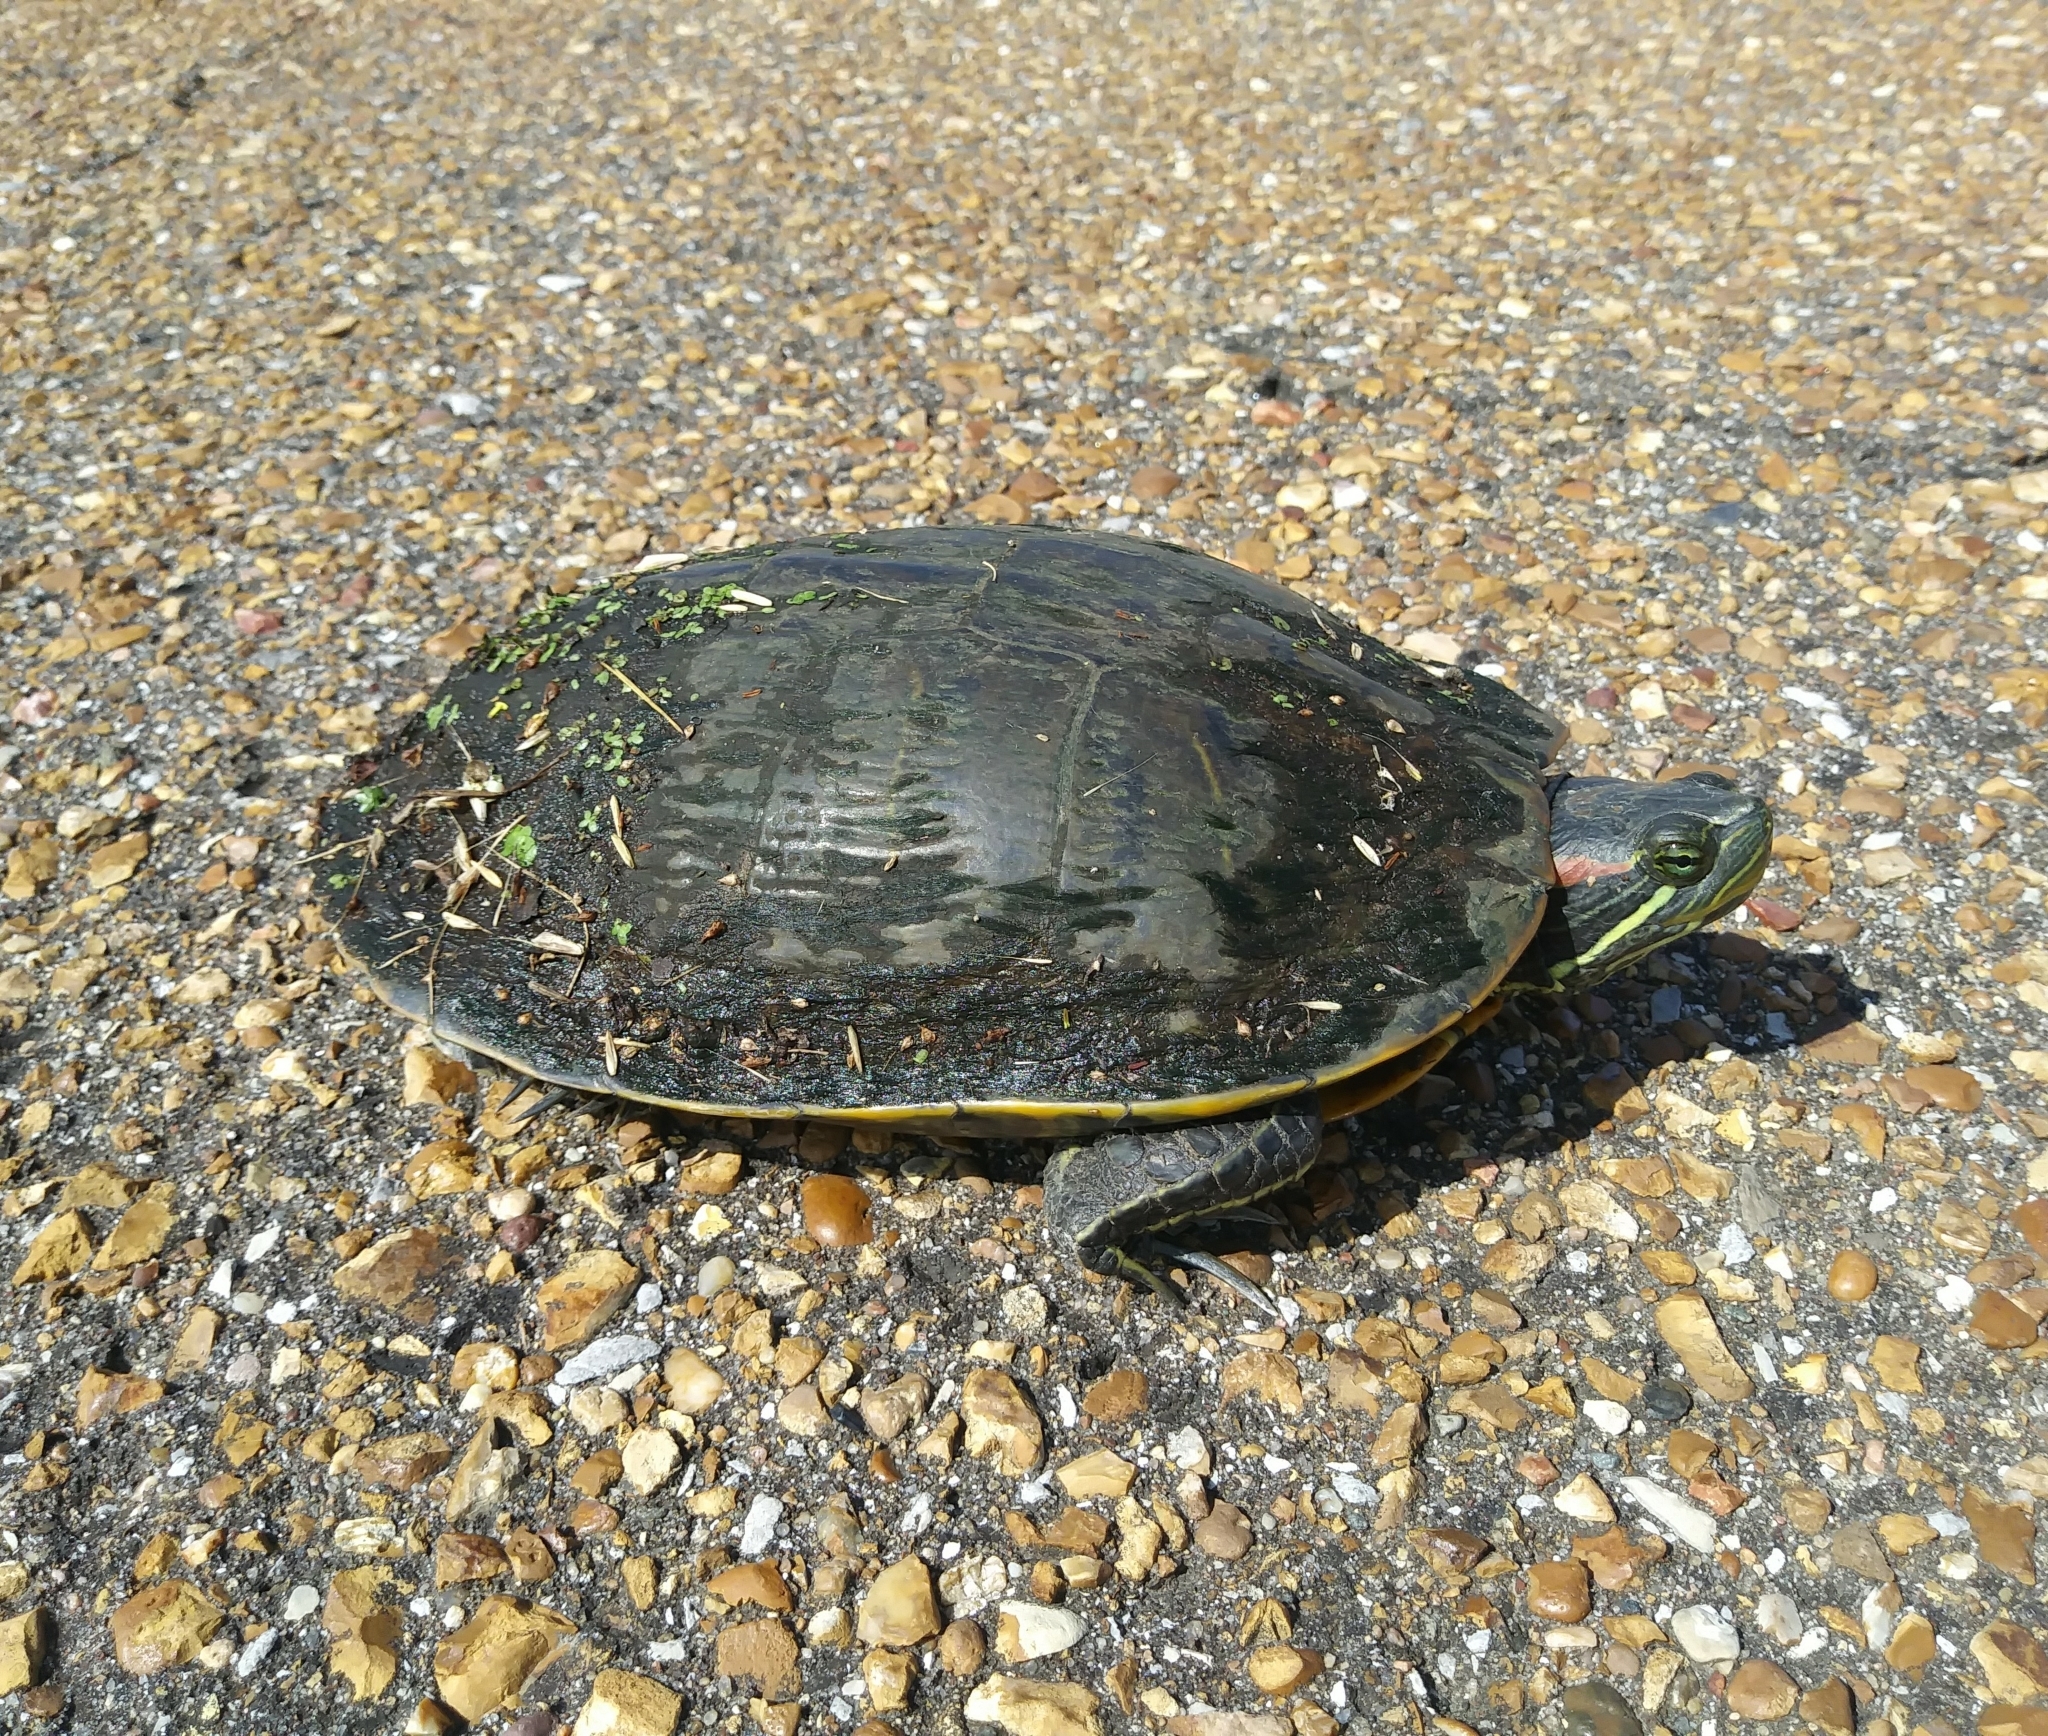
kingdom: Animalia
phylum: Chordata
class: Testudines
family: Emydidae
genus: Trachemys
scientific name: Trachemys scripta
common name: Slider
